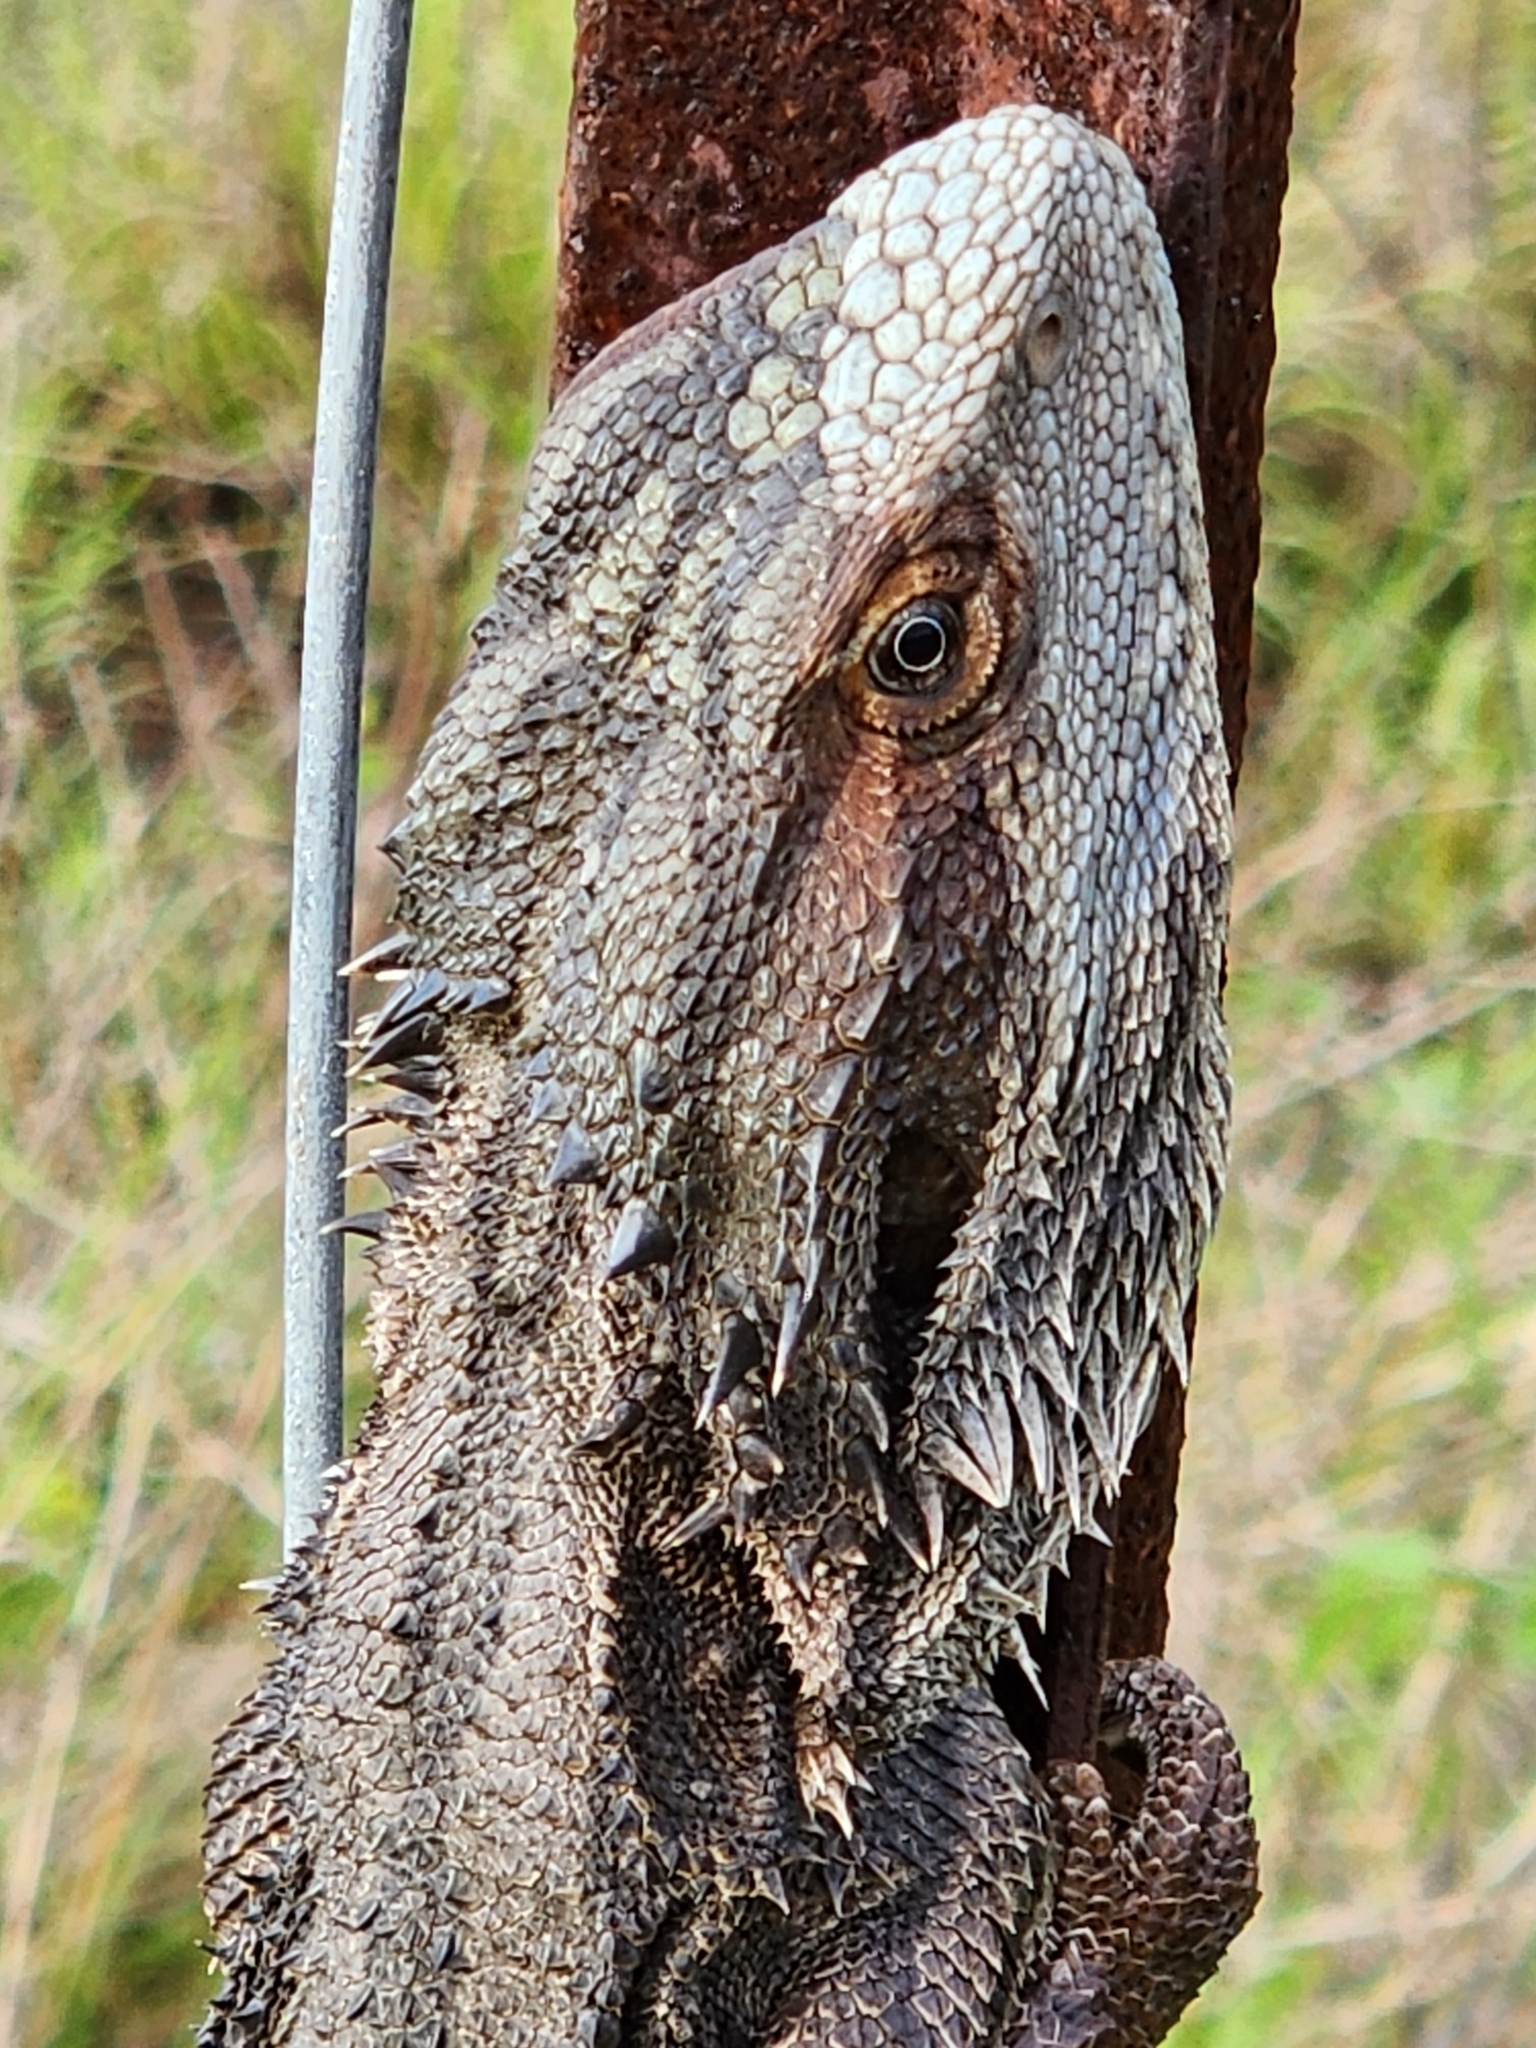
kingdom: Animalia
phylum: Chordata
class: Squamata
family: Agamidae
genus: Pogona
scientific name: Pogona barbata
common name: Bearded dragon
